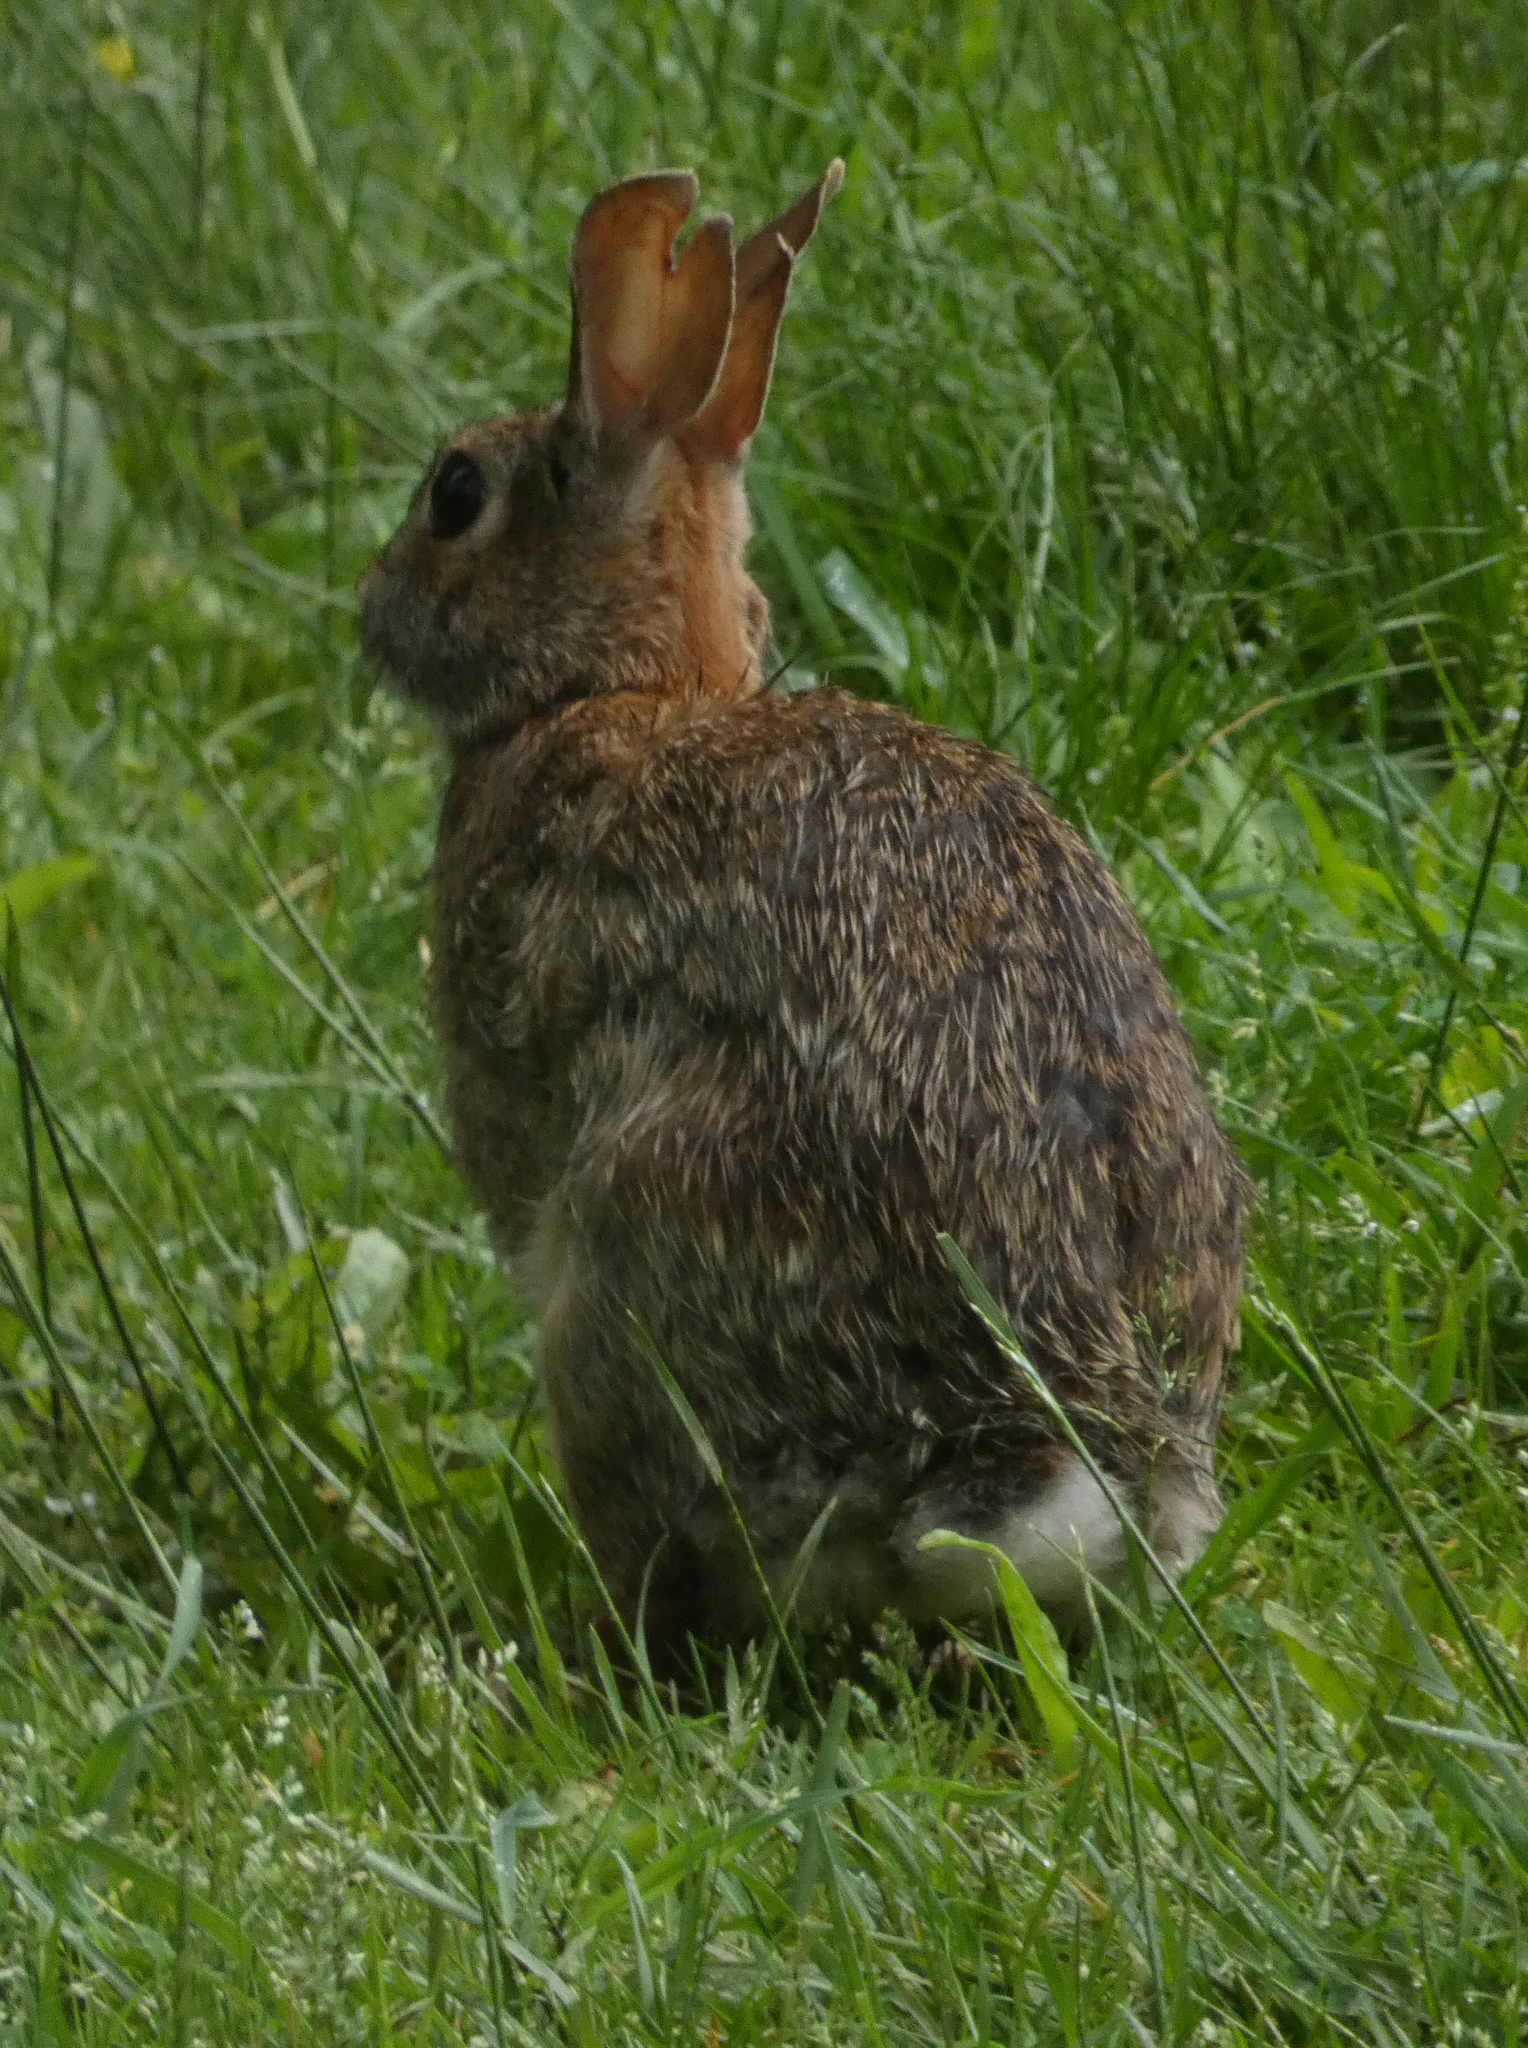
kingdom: Animalia
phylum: Chordata
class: Mammalia
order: Lagomorpha
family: Leporidae
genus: Sylvilagus
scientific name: Sylvilagus floridanus
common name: Eastern cottontail
